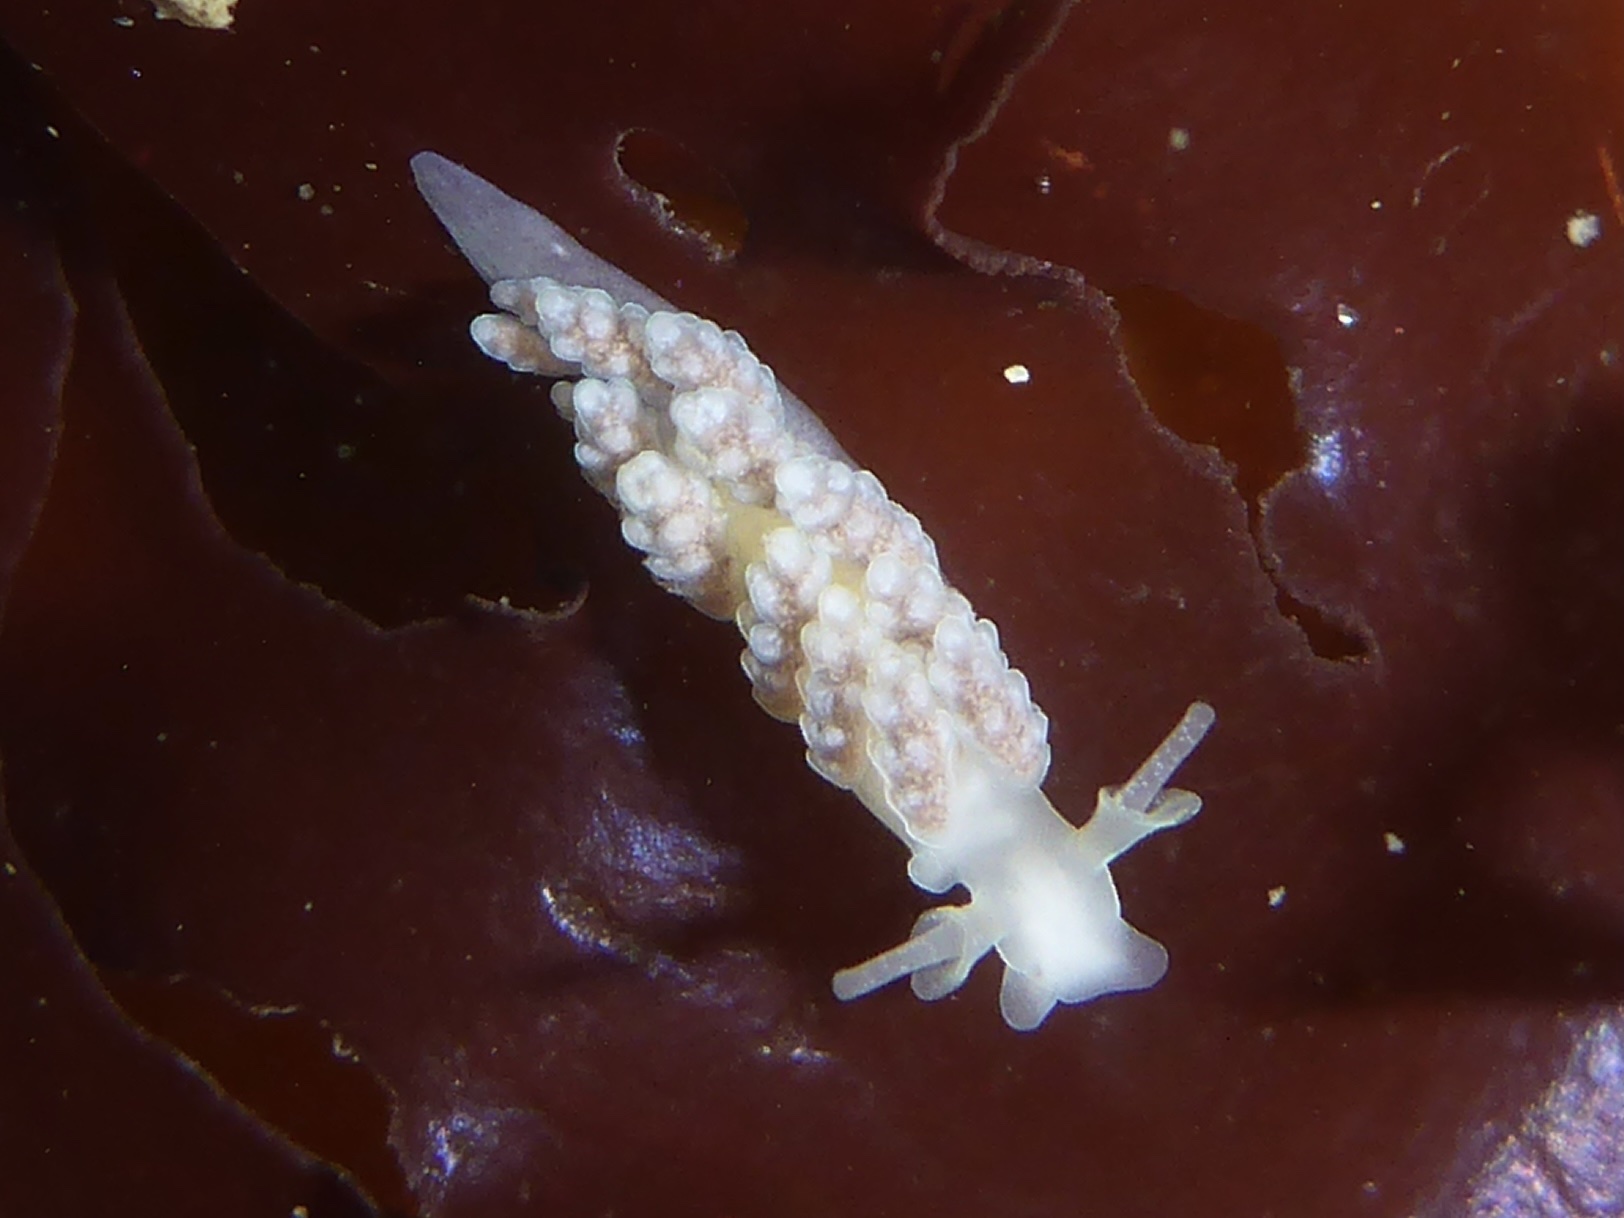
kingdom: Animalia
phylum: Mollusca
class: Gastropoda
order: Nudibranchia
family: Dotidae
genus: Doto
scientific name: Doto amyra
